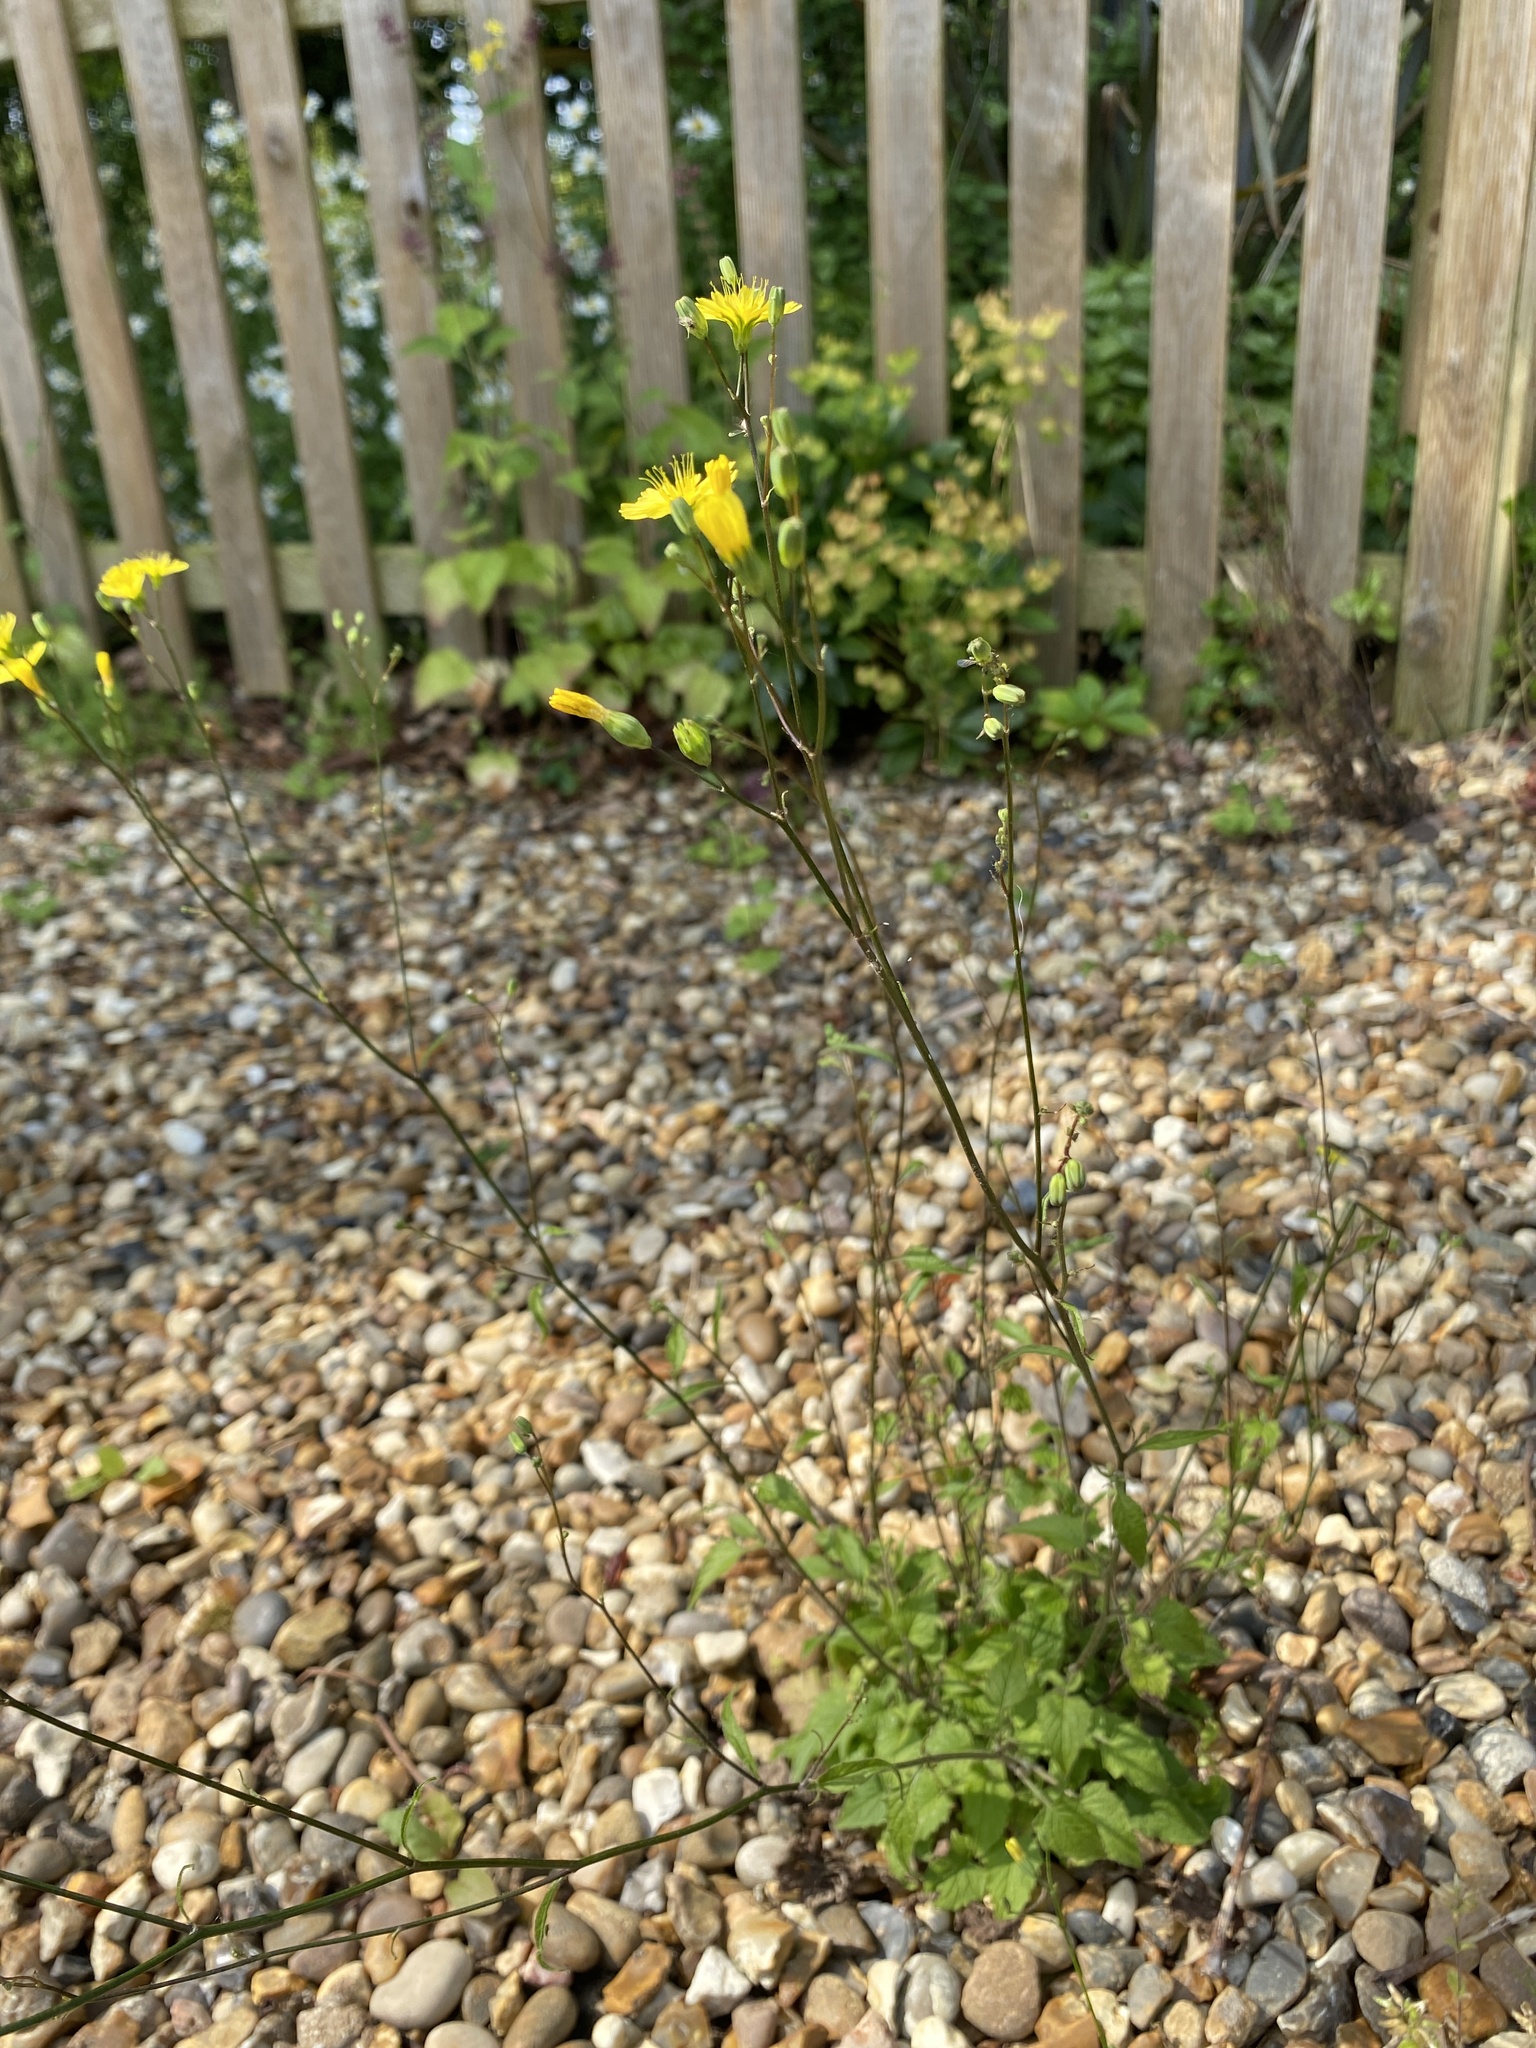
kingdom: Plantae
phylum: Tracheophyta
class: Magnoliopsida
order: Asterales
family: Asteraceae
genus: Lapsana
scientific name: Lapsana communis
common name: Nipplewort
